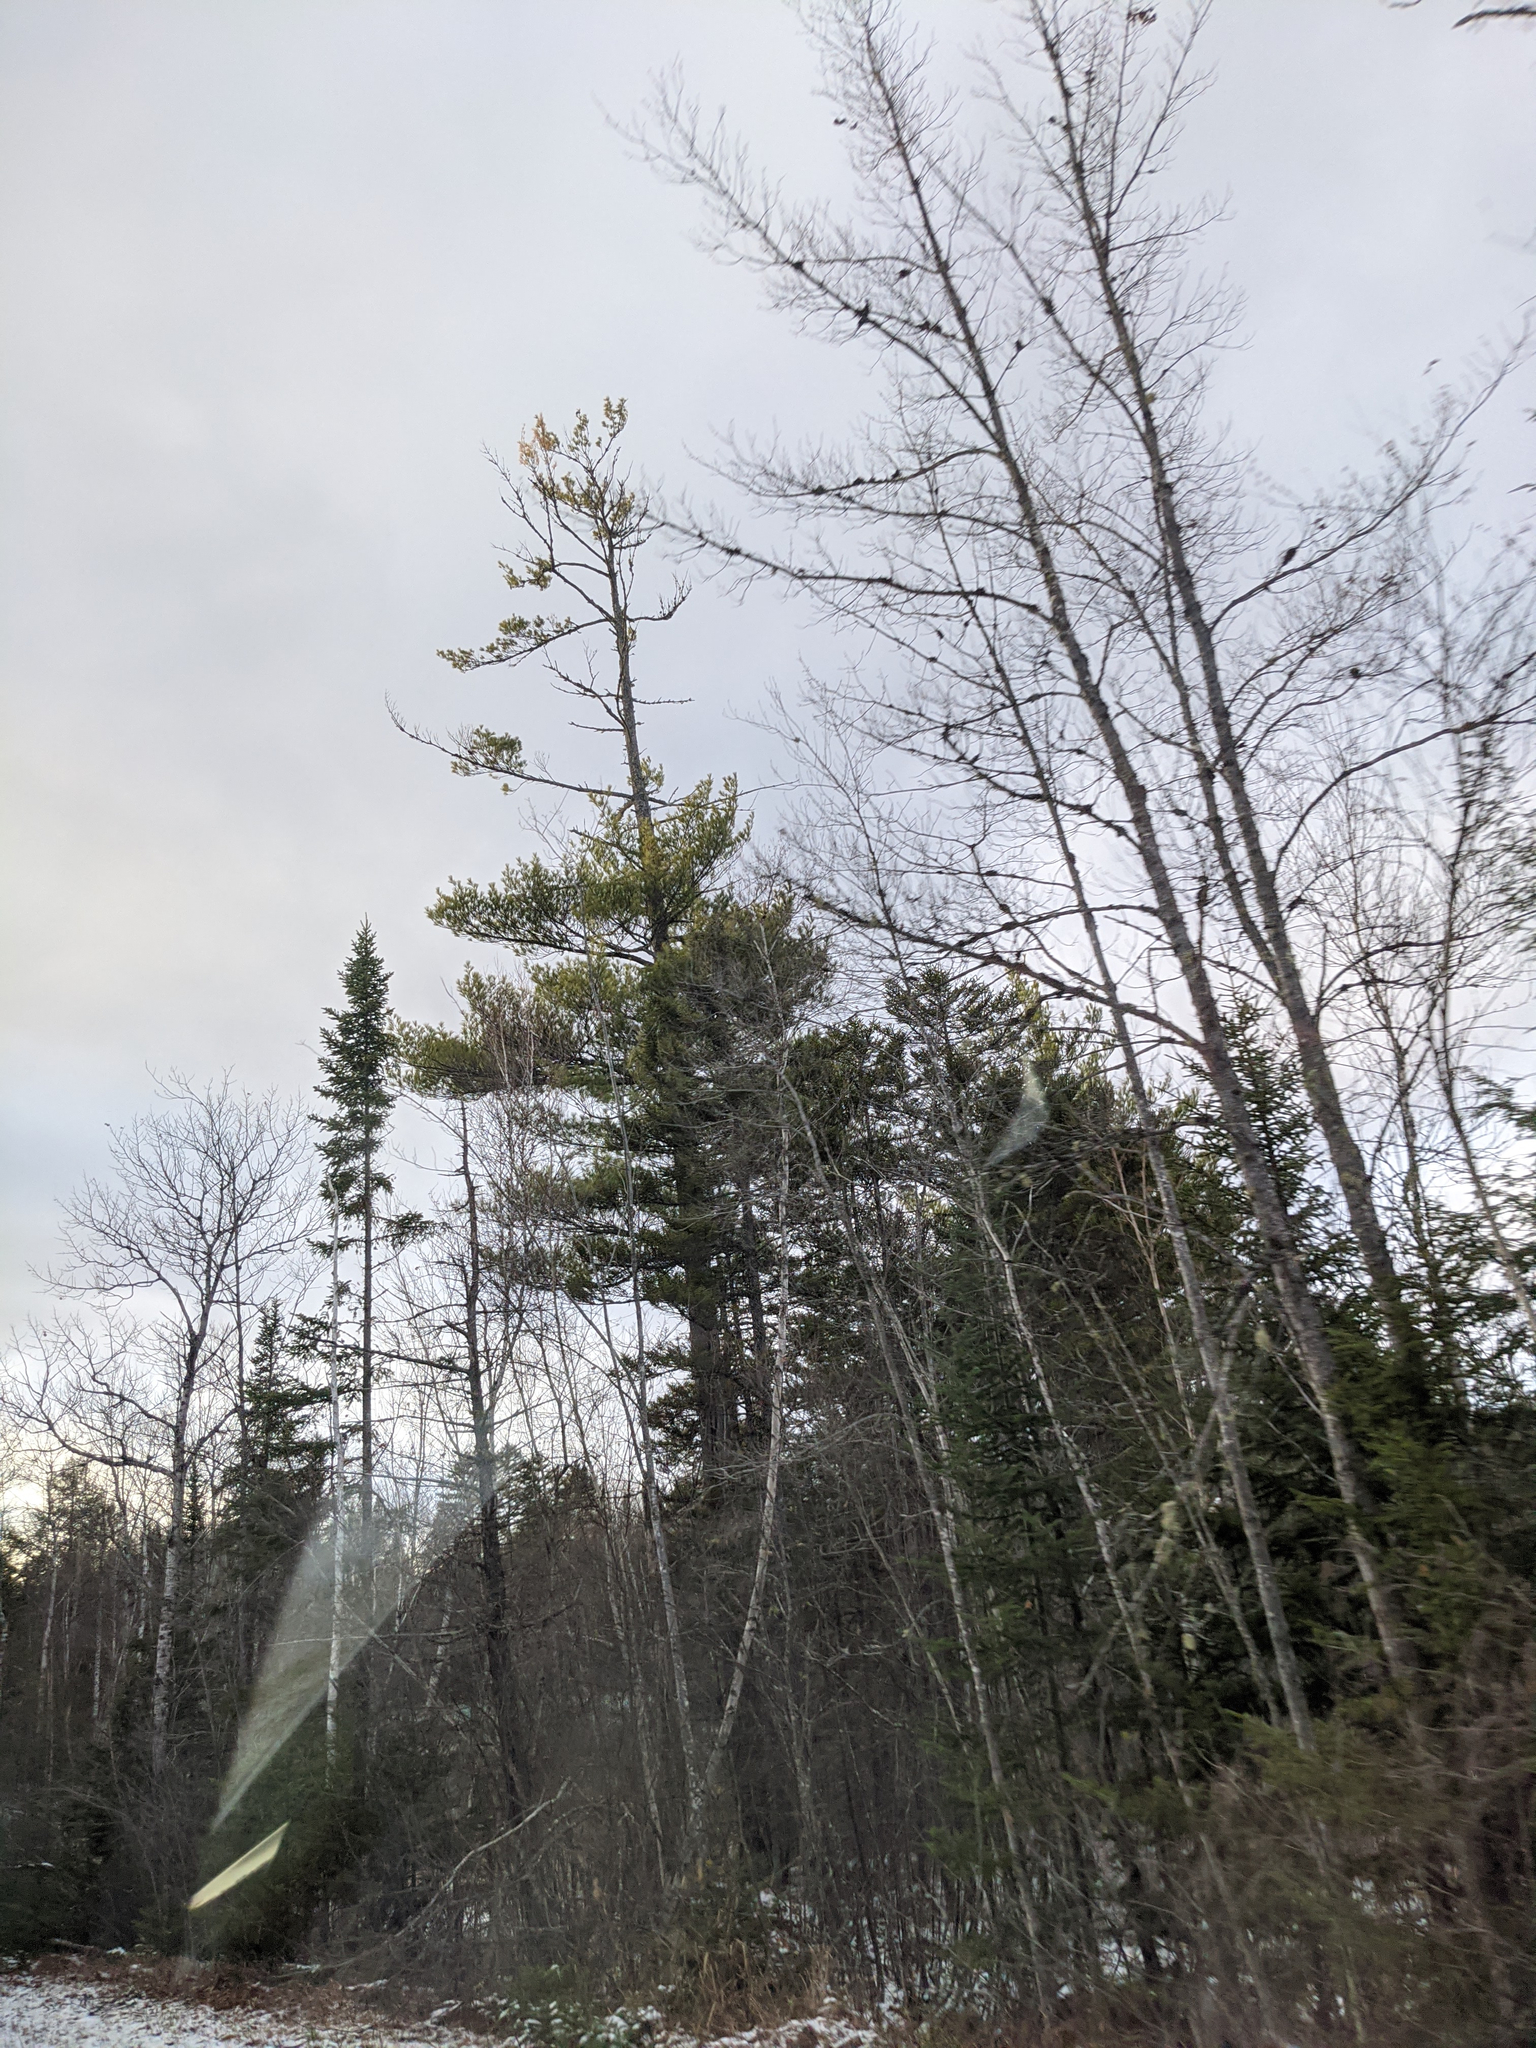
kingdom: Plantae
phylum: Tracheophyta
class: Pinopsida
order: Pinales
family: Pinaceae
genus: Pinus
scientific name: Pinus strobus
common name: Weymouth pine
